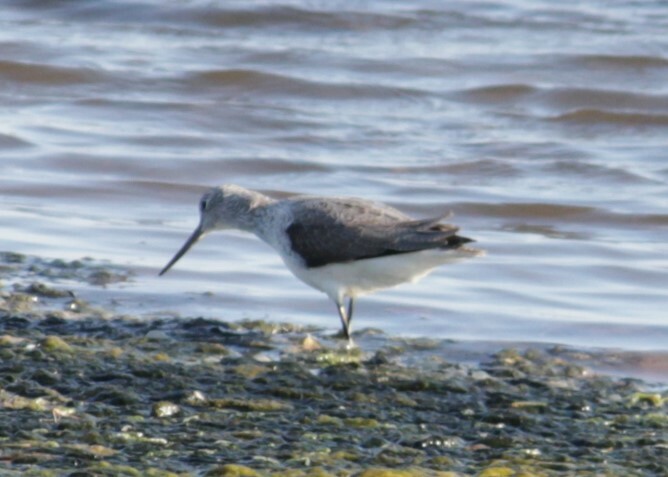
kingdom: Animalia
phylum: Chordata
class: Aves
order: Charadriiformes
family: Scolopacidae
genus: Tringa
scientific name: Tringa nebularia
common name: Common greenshank
